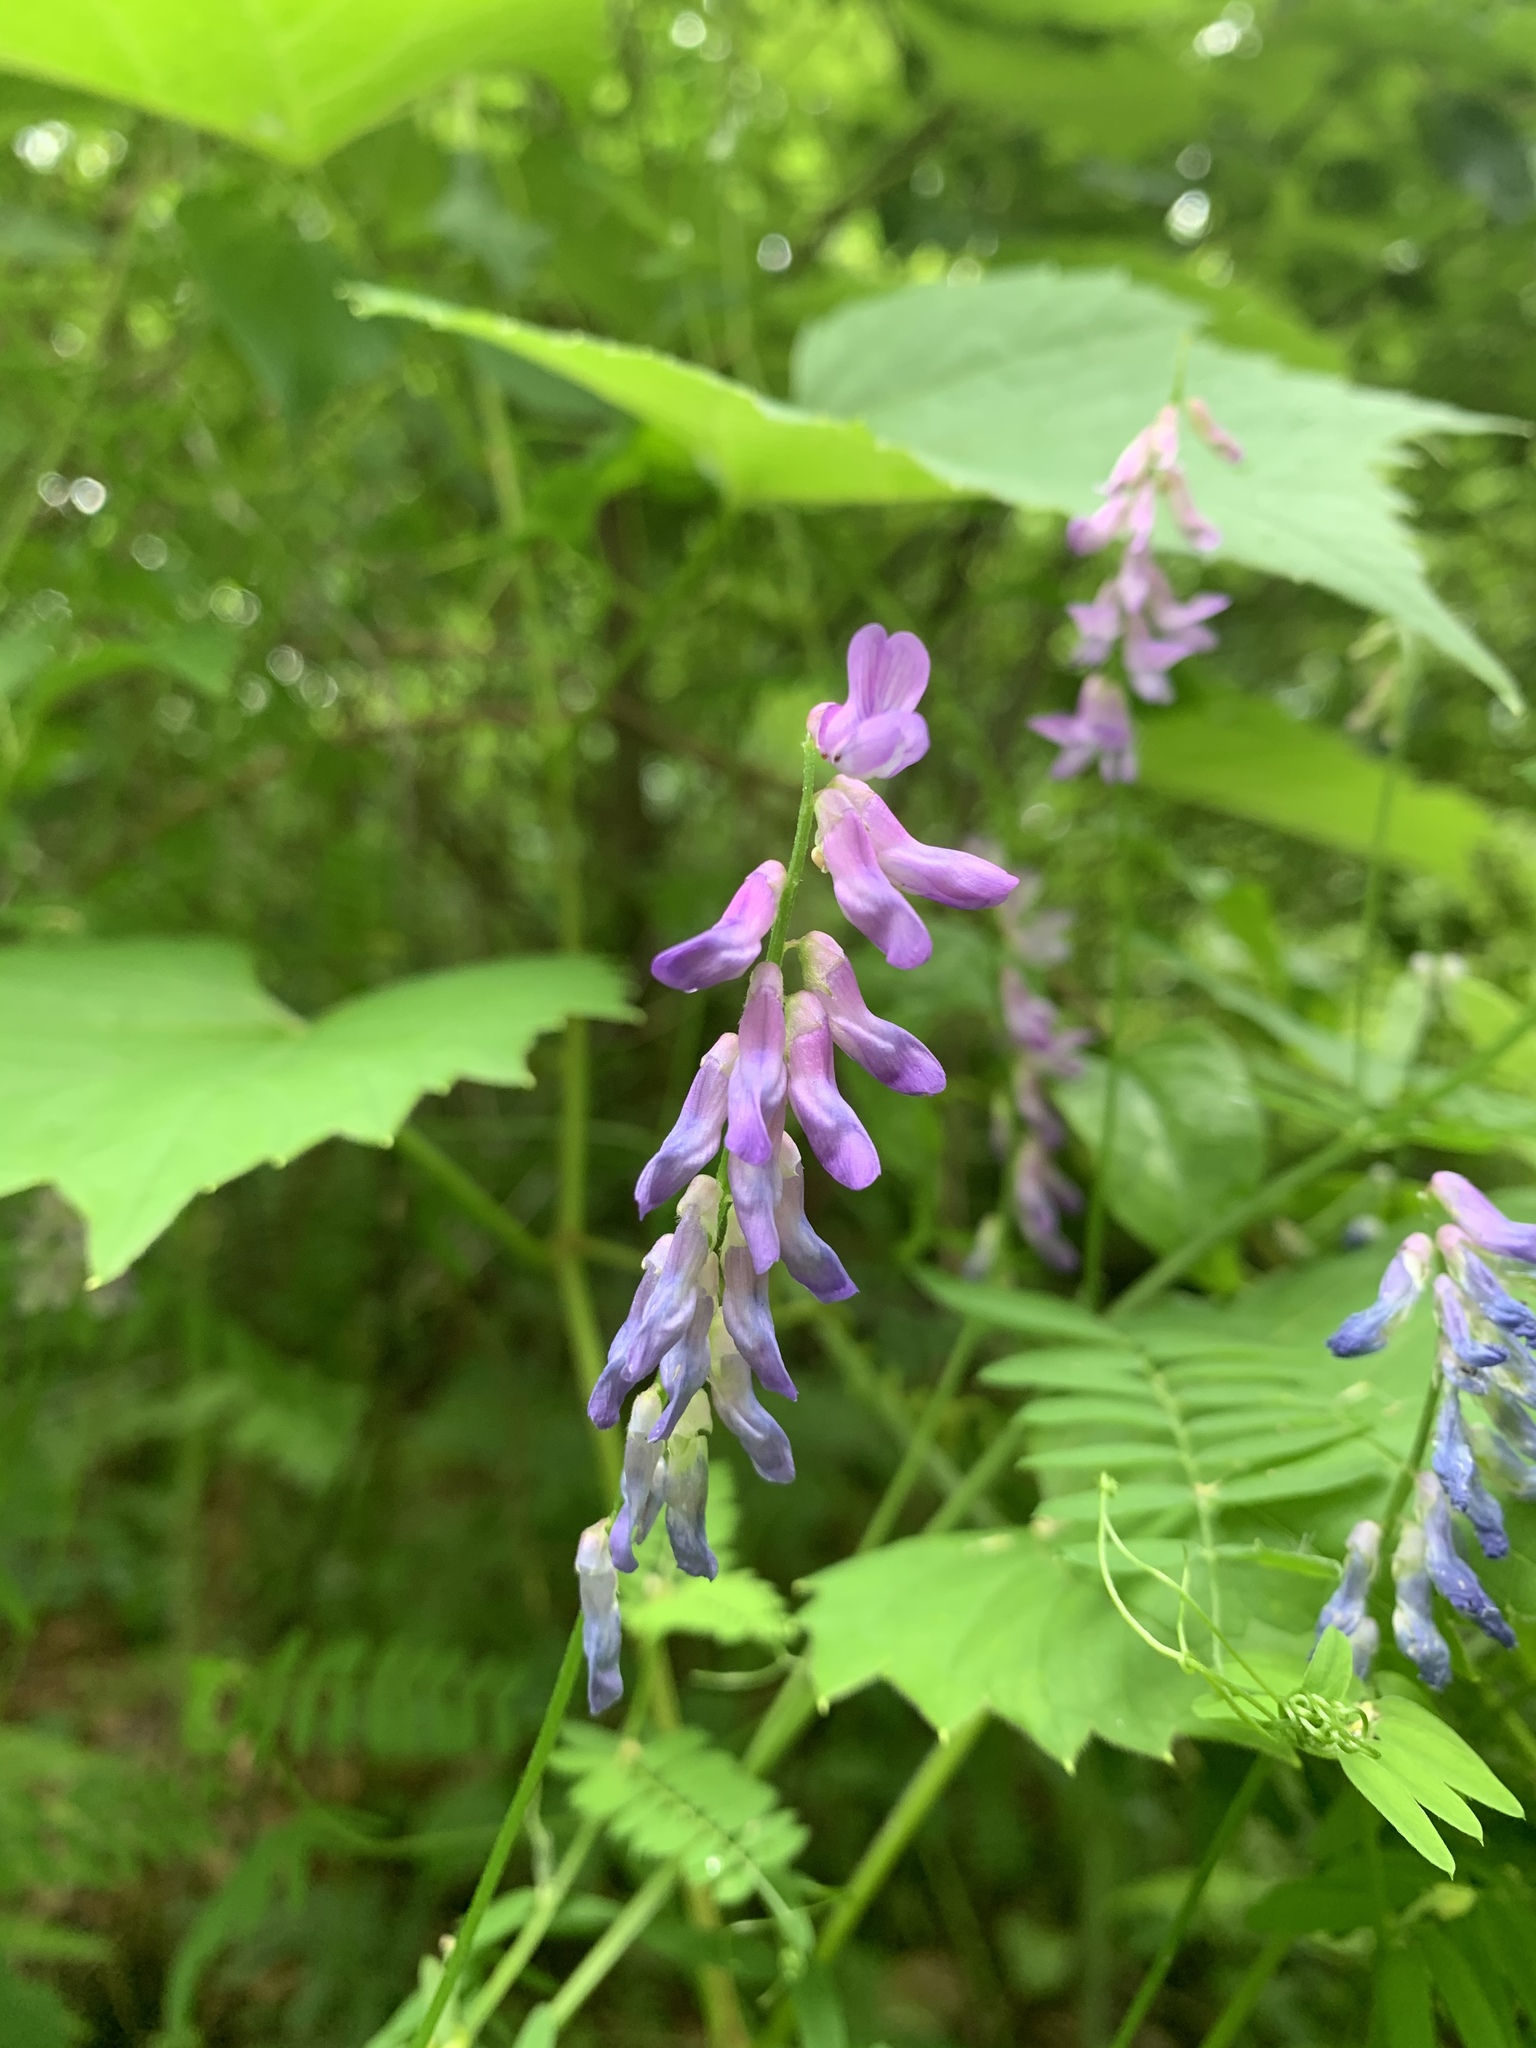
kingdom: Plantae
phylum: Tracheophyta
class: Magnoliopsida
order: Fabales
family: Fabaceae
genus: Vicia
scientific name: Vicia cracca
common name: Bird vetch
